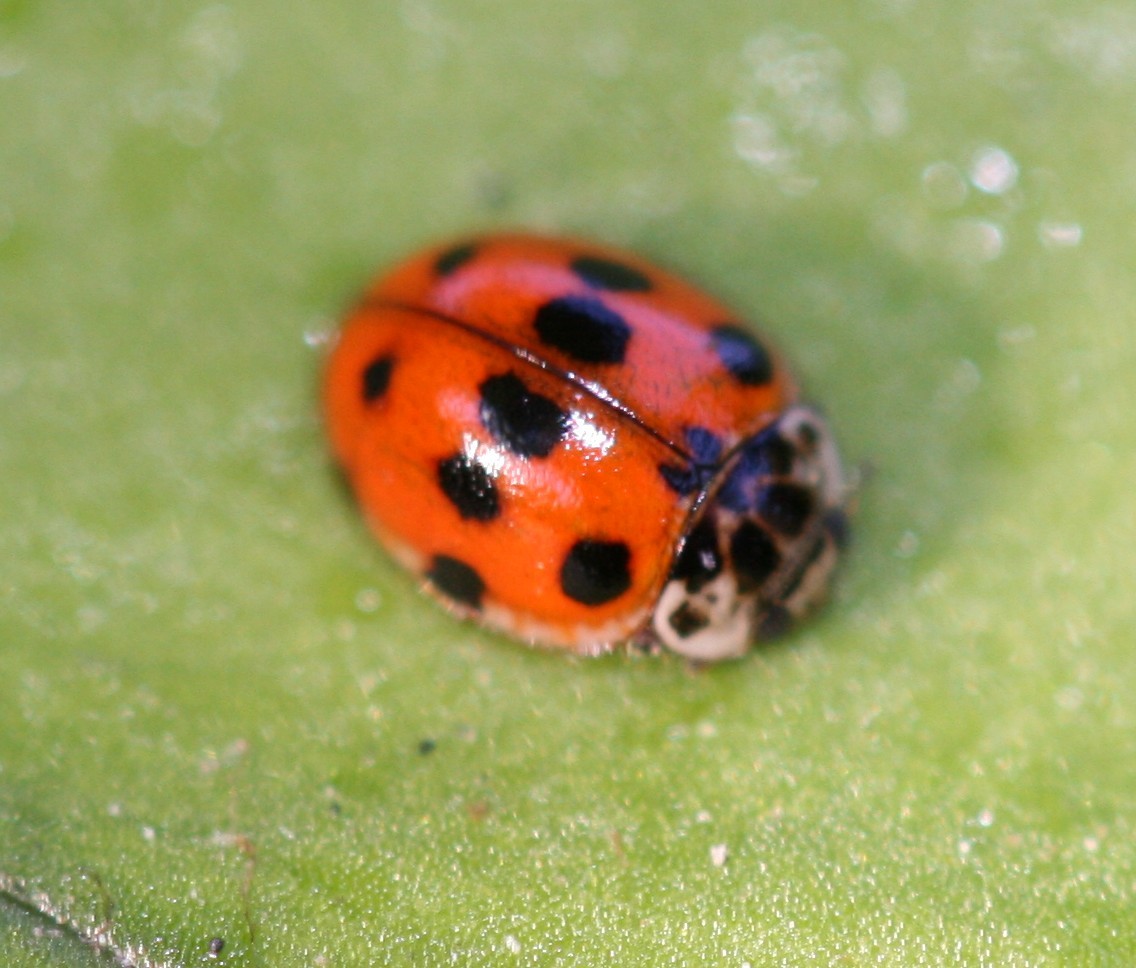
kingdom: Animalia
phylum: Arthropoda
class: Insecta
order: Coleoptera
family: Coccinellidae
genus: Adalia
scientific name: Adalia decempunctata
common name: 10-spot ladybird
